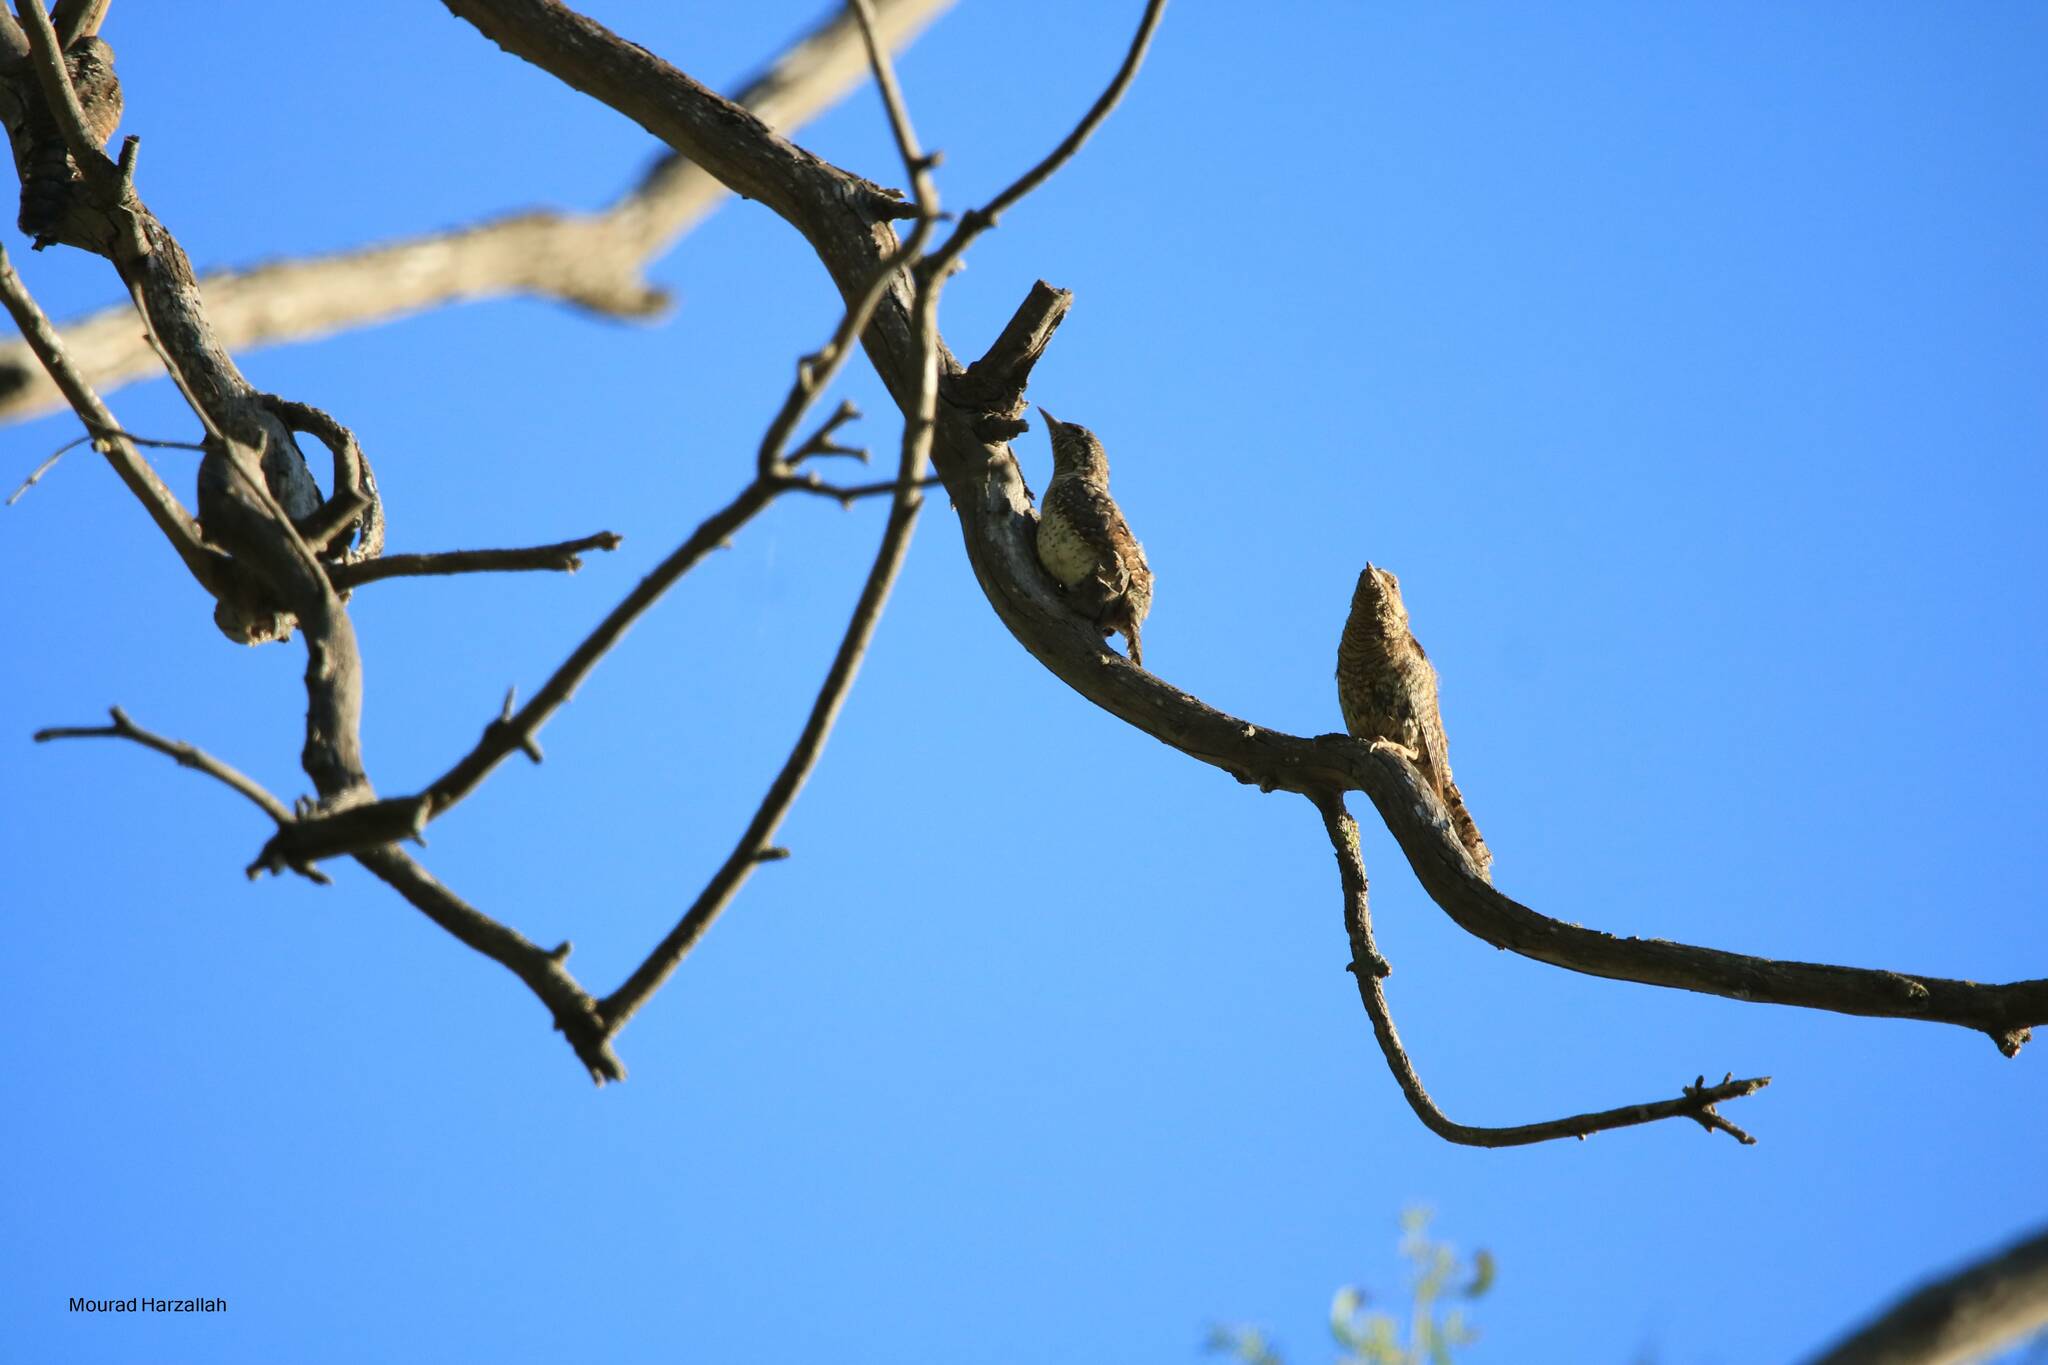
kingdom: Animalia
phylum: Chordata
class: Aves
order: Piciformes
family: Picidae
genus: Jynx
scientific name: Jynx torquilla
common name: Eurasian wryneck
